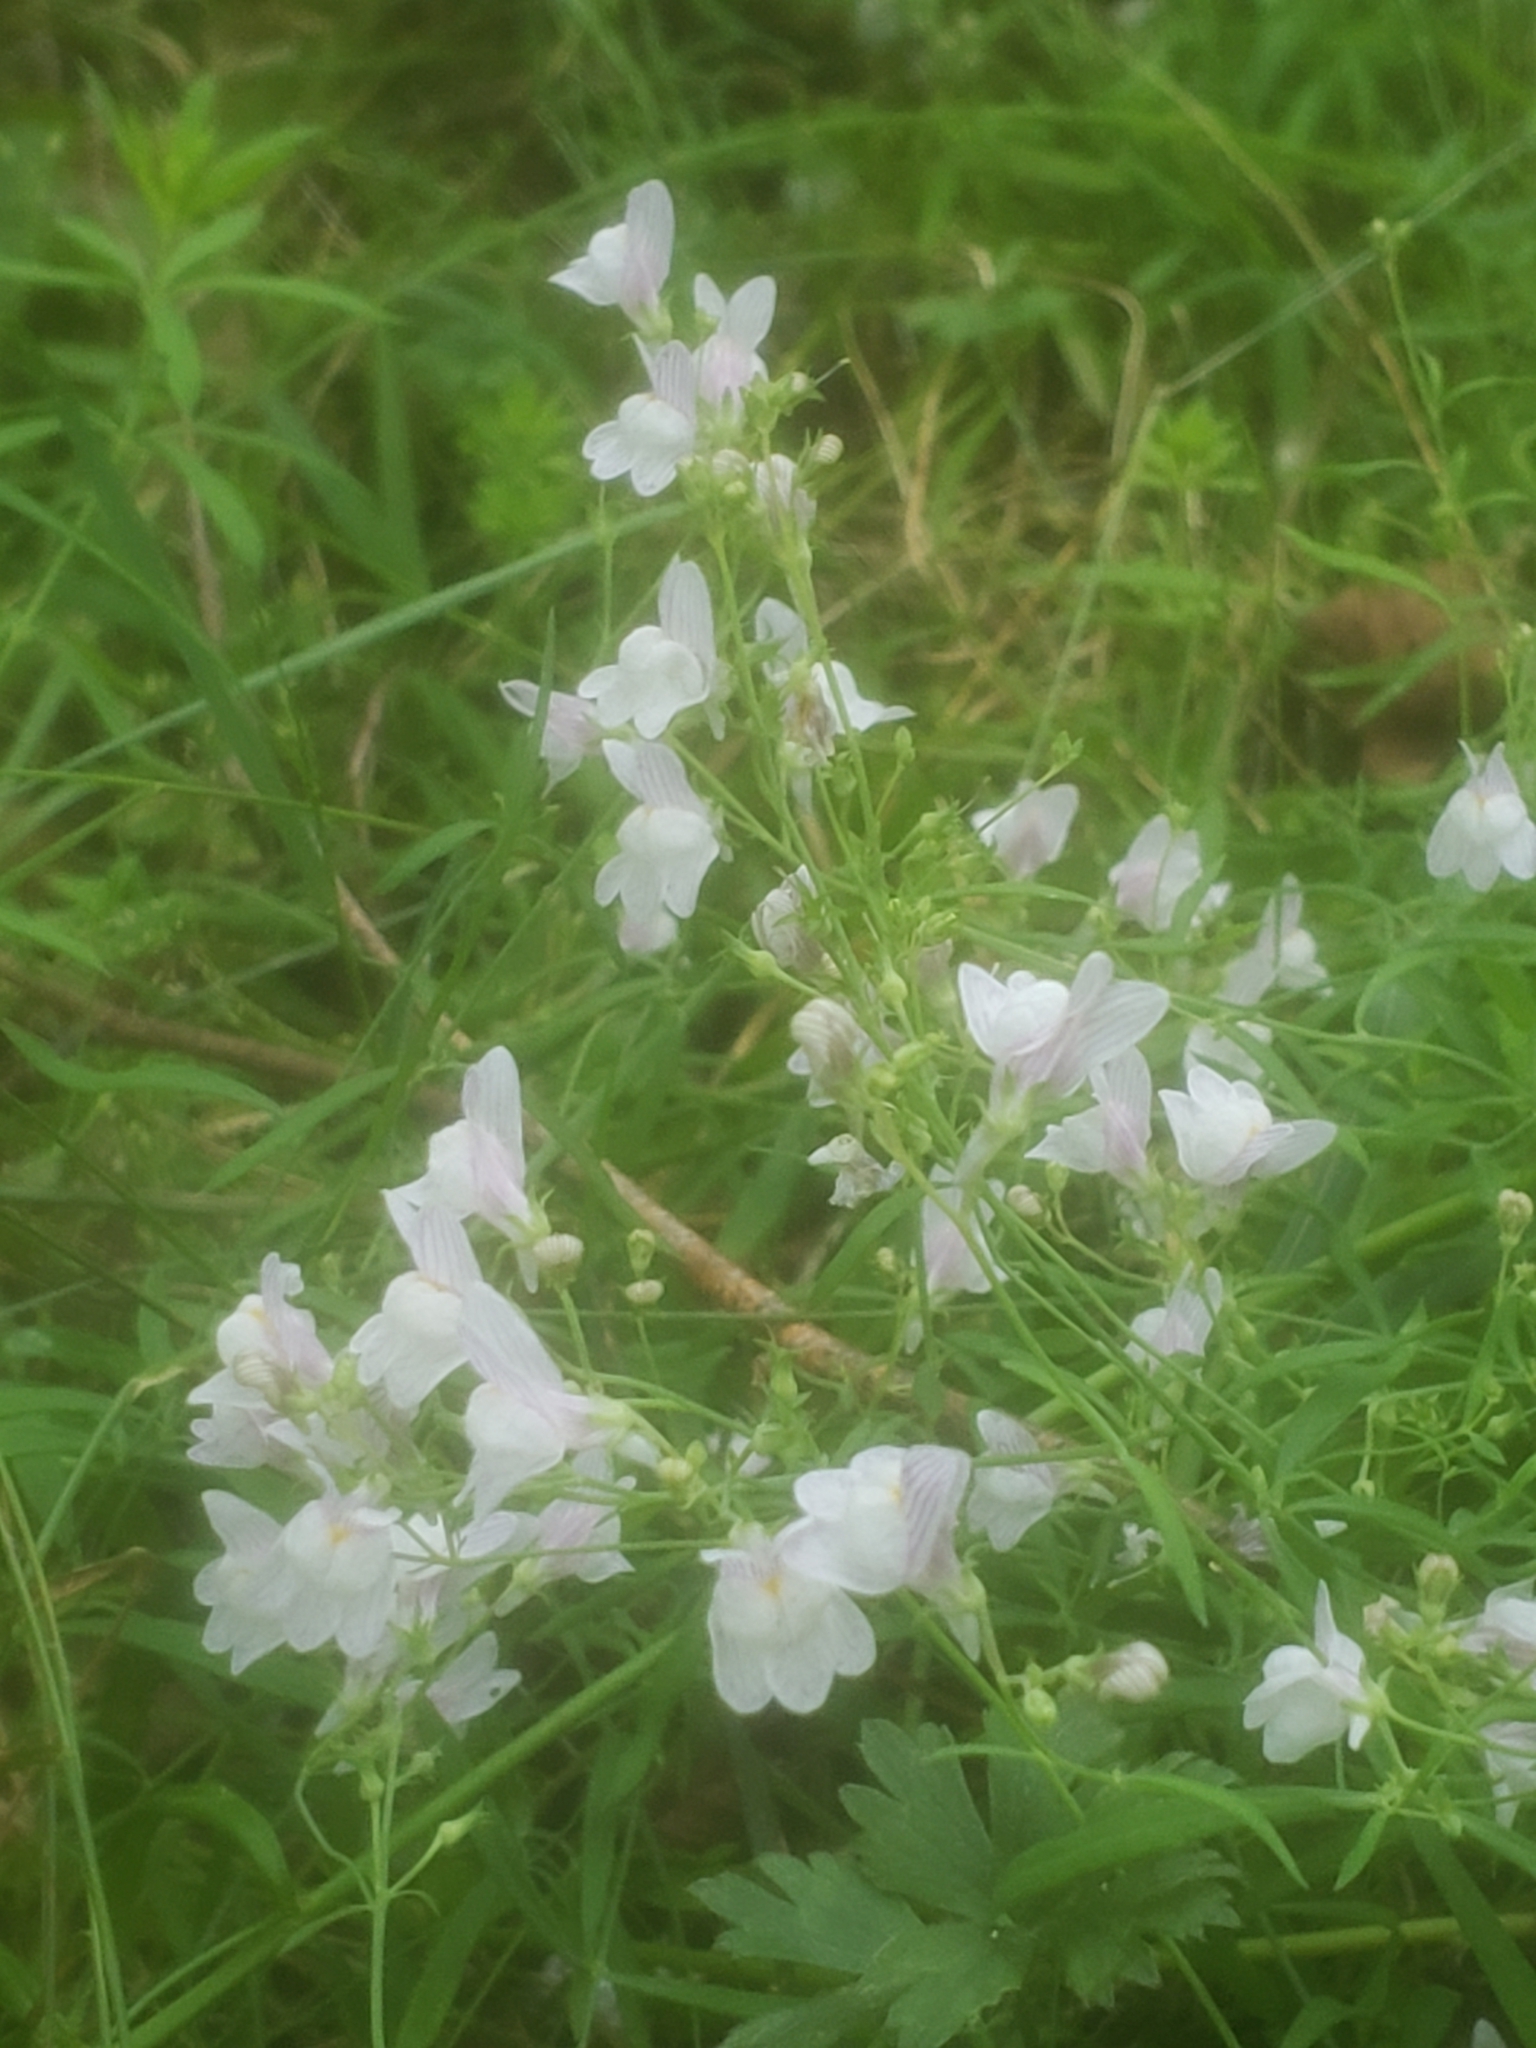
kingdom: Plantae
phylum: Tracheophyta
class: Magnoliopsida
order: Lamiales
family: Plantaginaceae
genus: Linaria
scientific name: Linaria repens
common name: Pale toadflax
